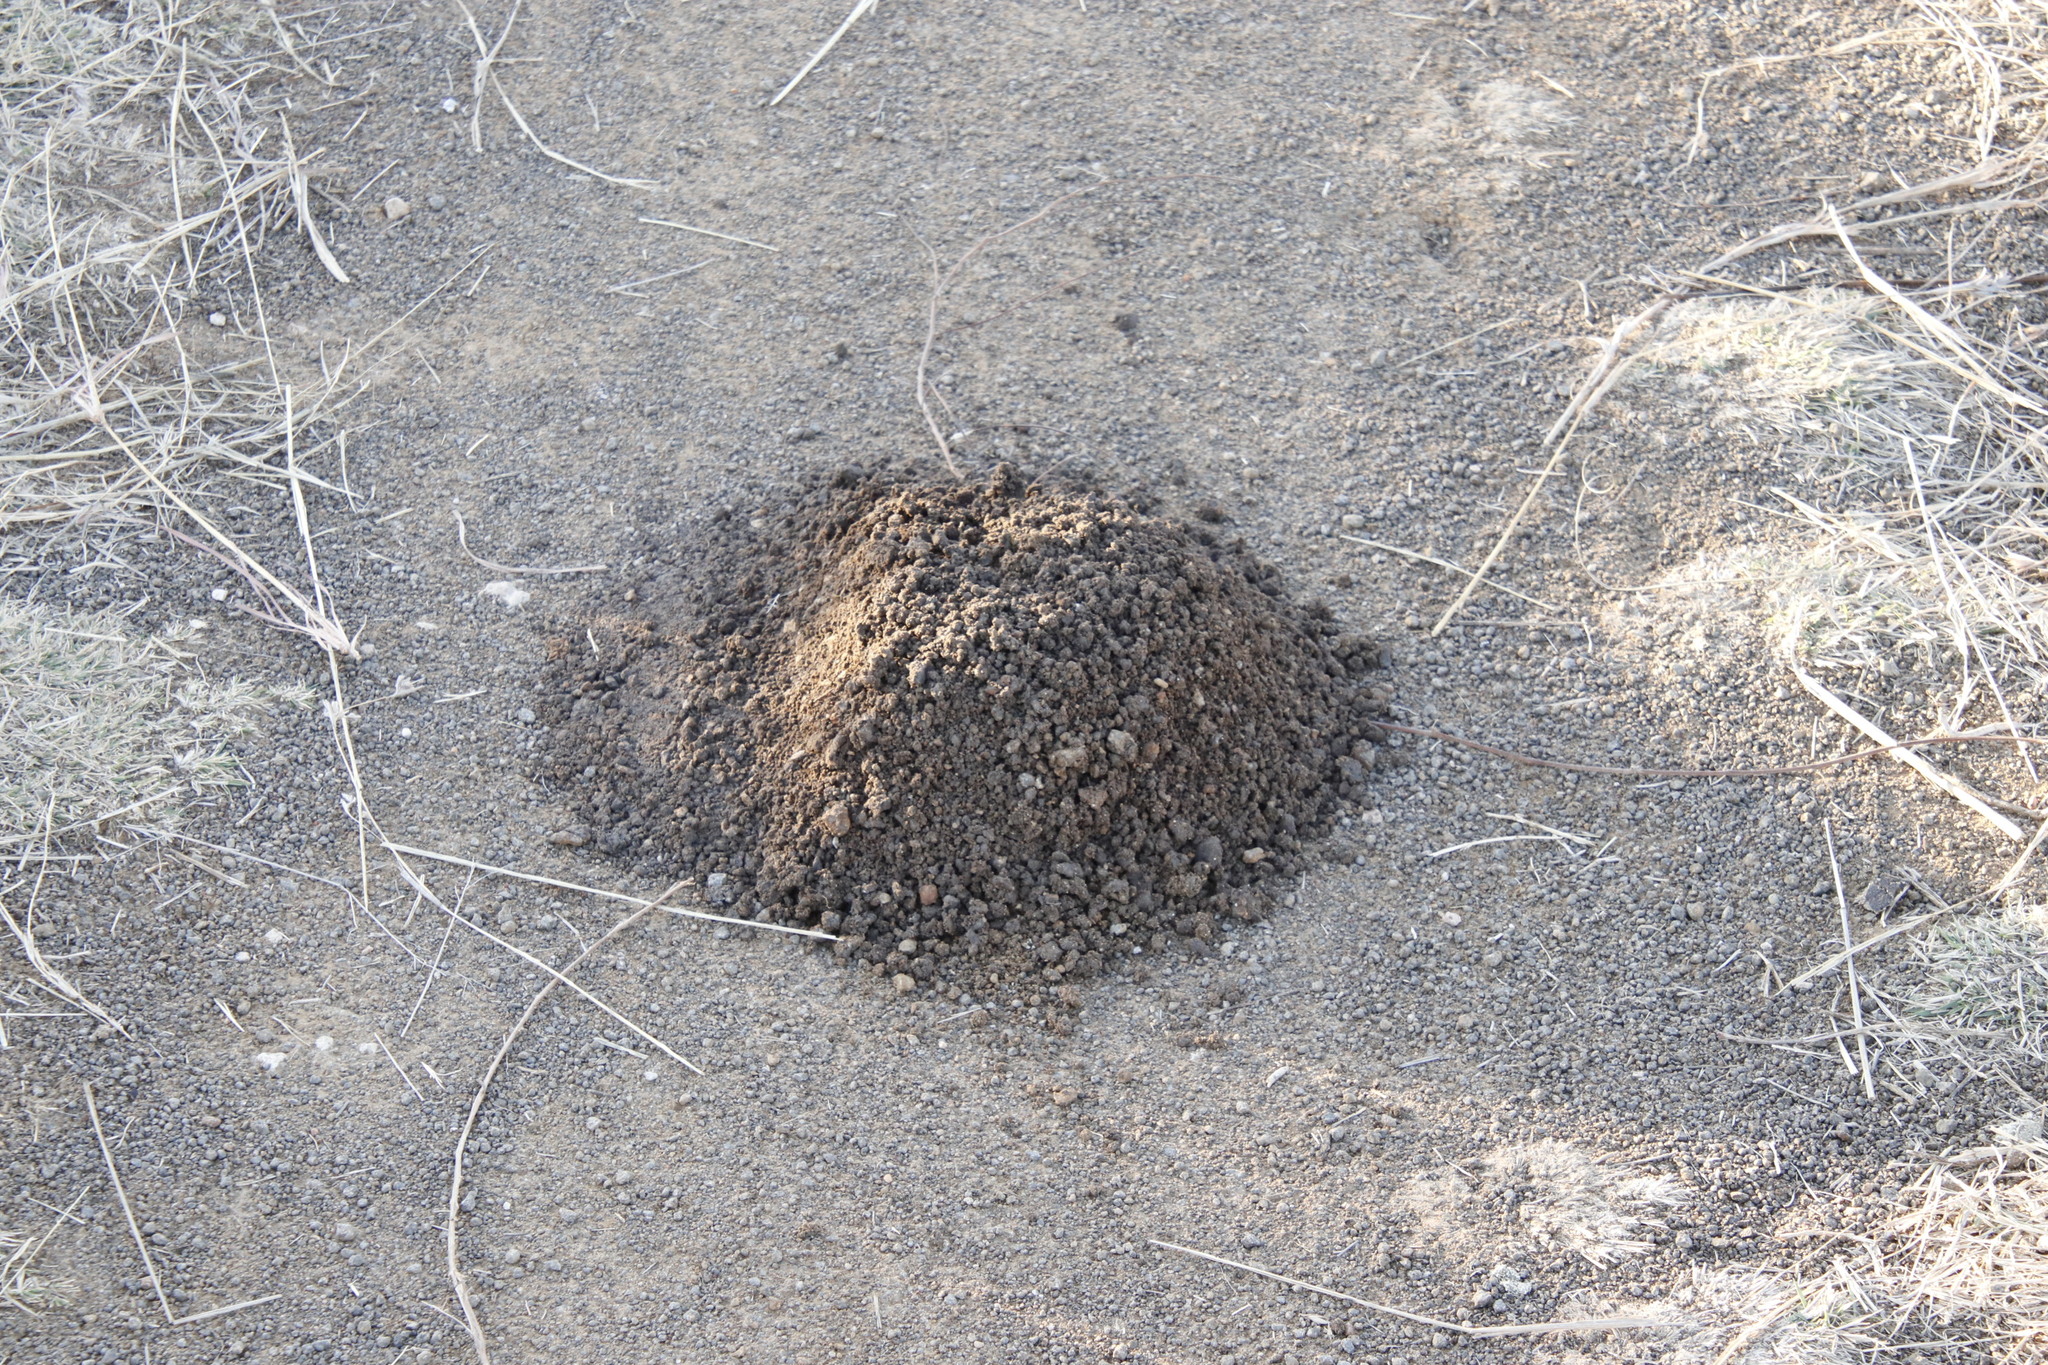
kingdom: Animalia
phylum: Chordata
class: Mammalia
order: Rodentia
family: Bathyergidae
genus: Cryptomys
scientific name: Cryptomys hottentotus
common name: Southern african mole-rat
